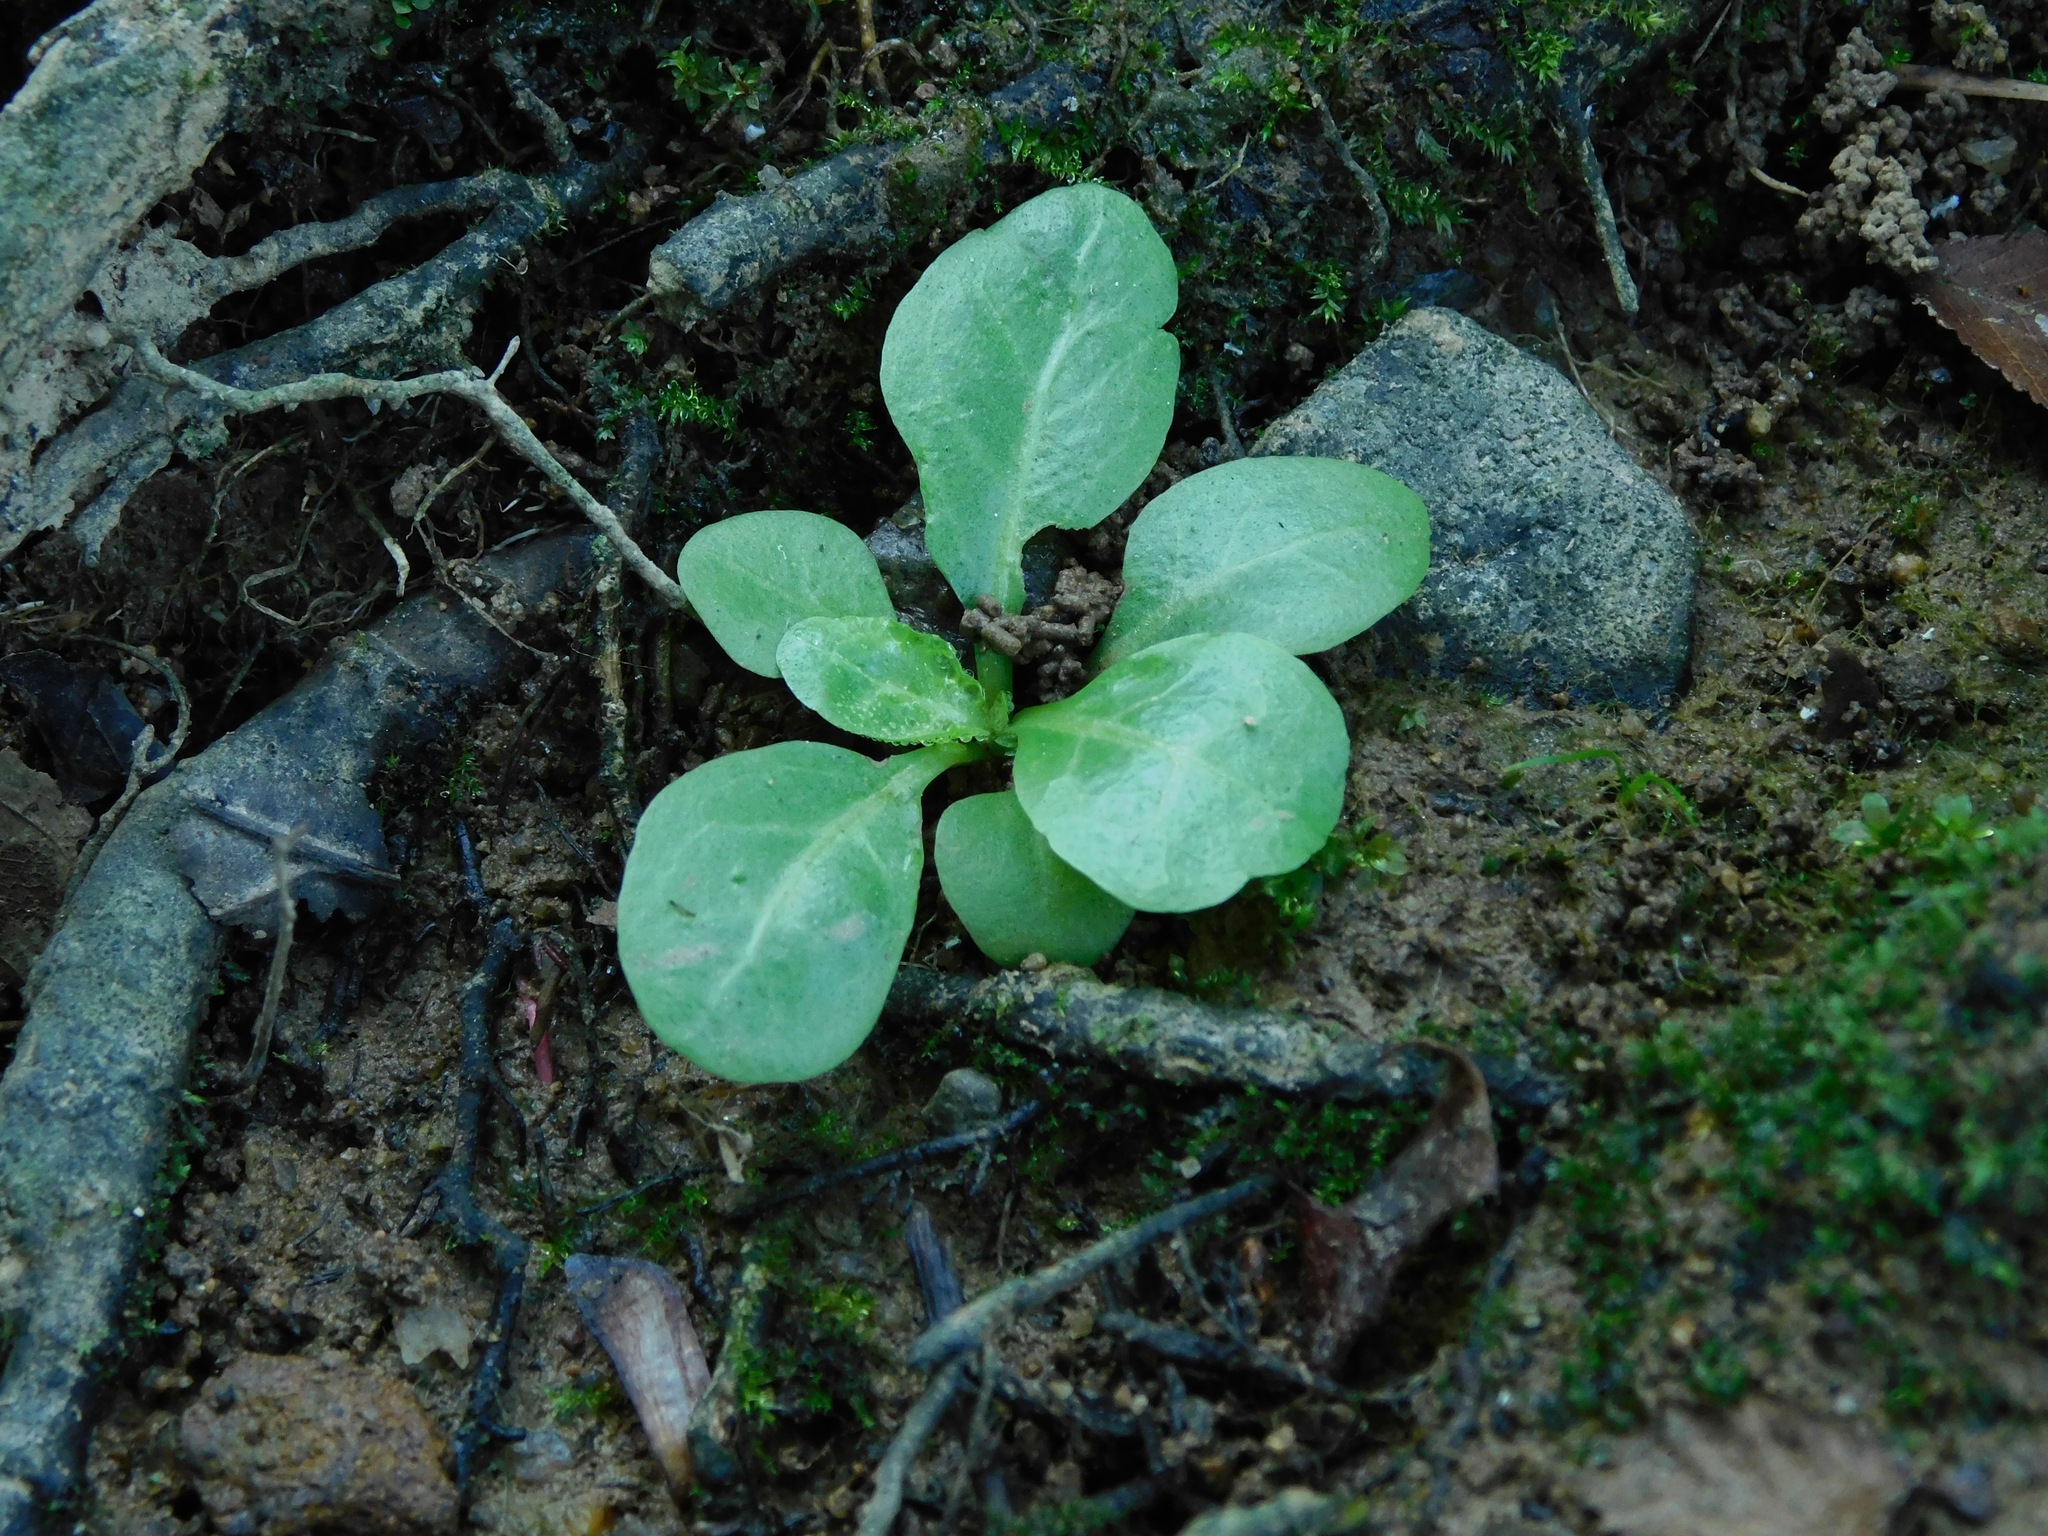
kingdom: Plantae
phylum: Tracheophyta
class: Magnoliopsida
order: Ericales
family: Primulaceae
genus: Samolus
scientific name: Samolus parviflorus
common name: False water pimpernel
